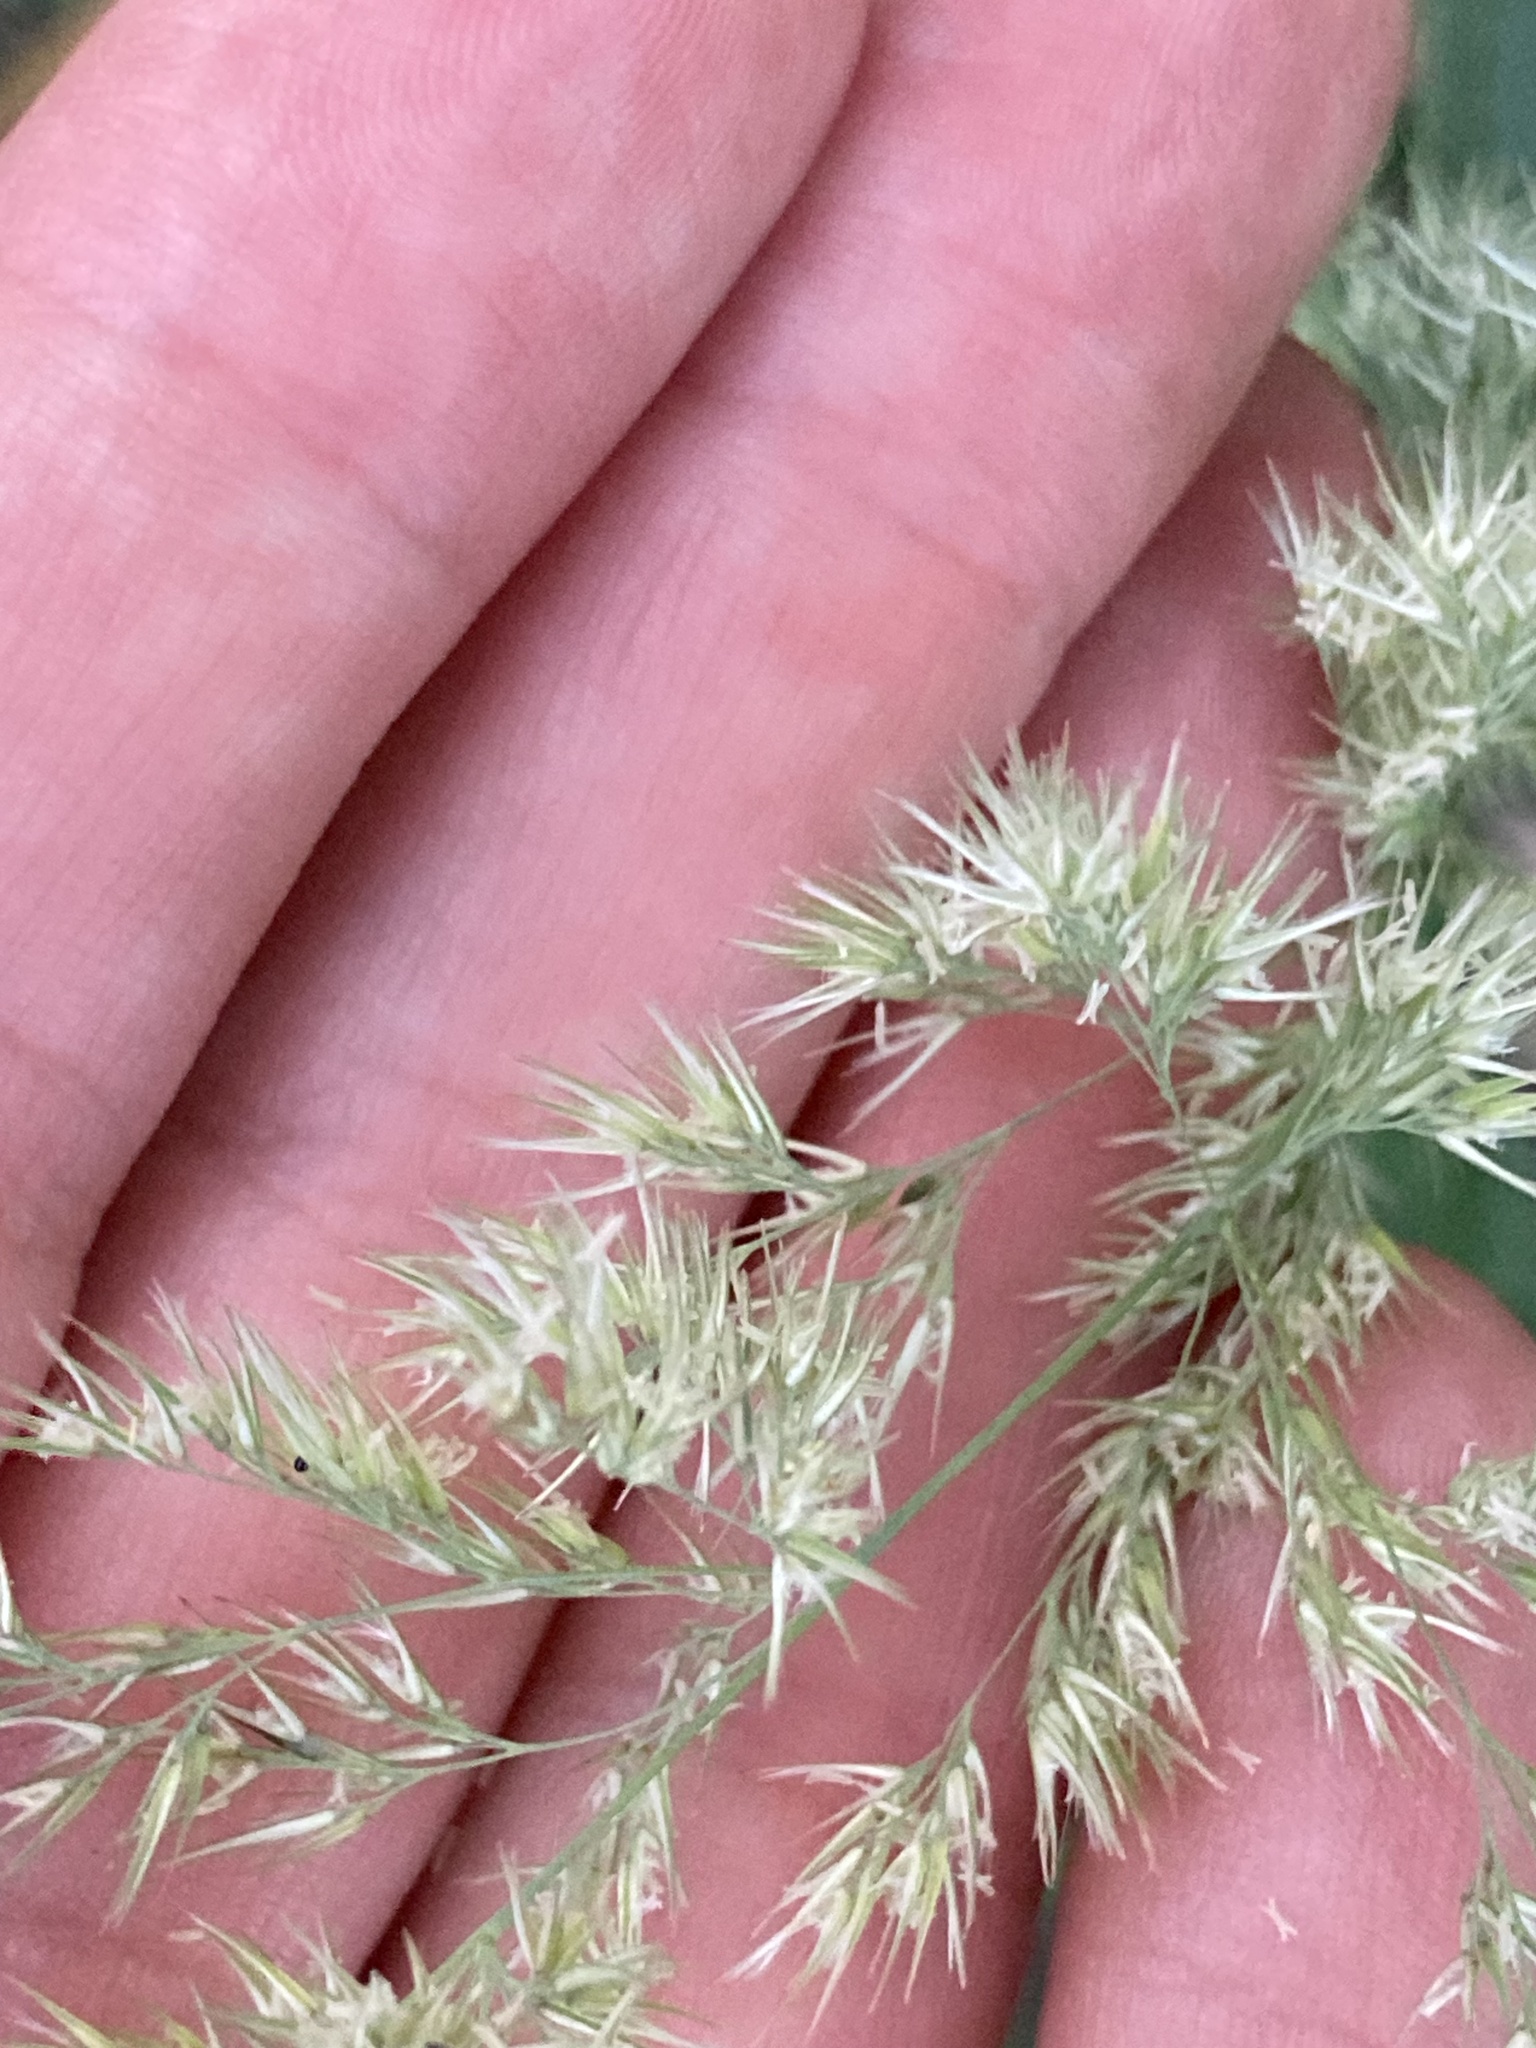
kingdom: Plantae
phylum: Tracheophyta
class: Liliopsida
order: Poales
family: Poaceae
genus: Calamagrostis
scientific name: Calamagrostis epigejos
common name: Wood small-reed
